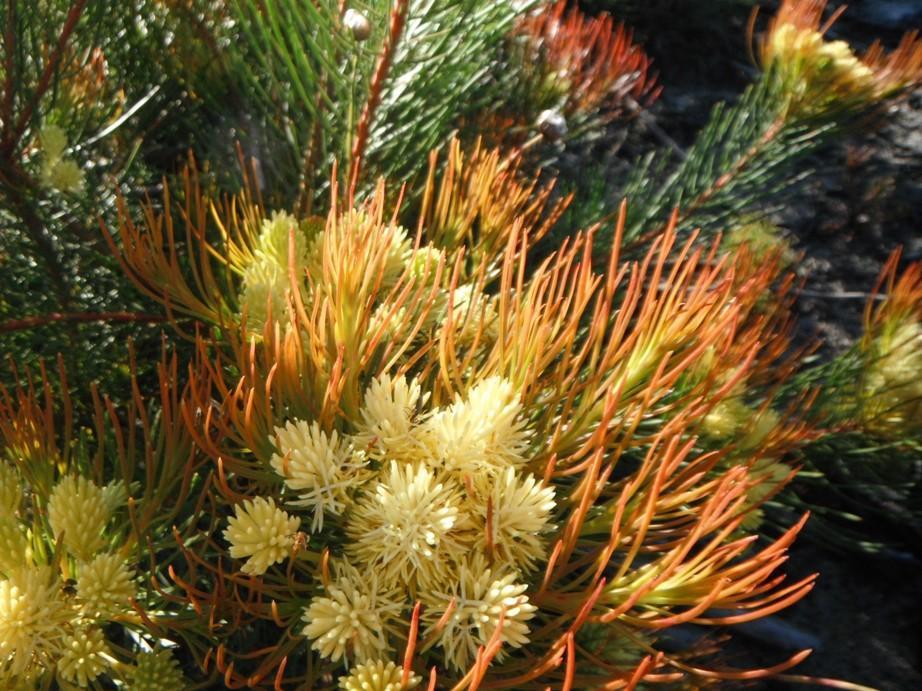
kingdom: Plantae
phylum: Tracheophyta
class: Magnoliopsida
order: Proteales
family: Proteaceae
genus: Aulax
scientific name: Aulax cancellata
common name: Channel-leaf featherbush
